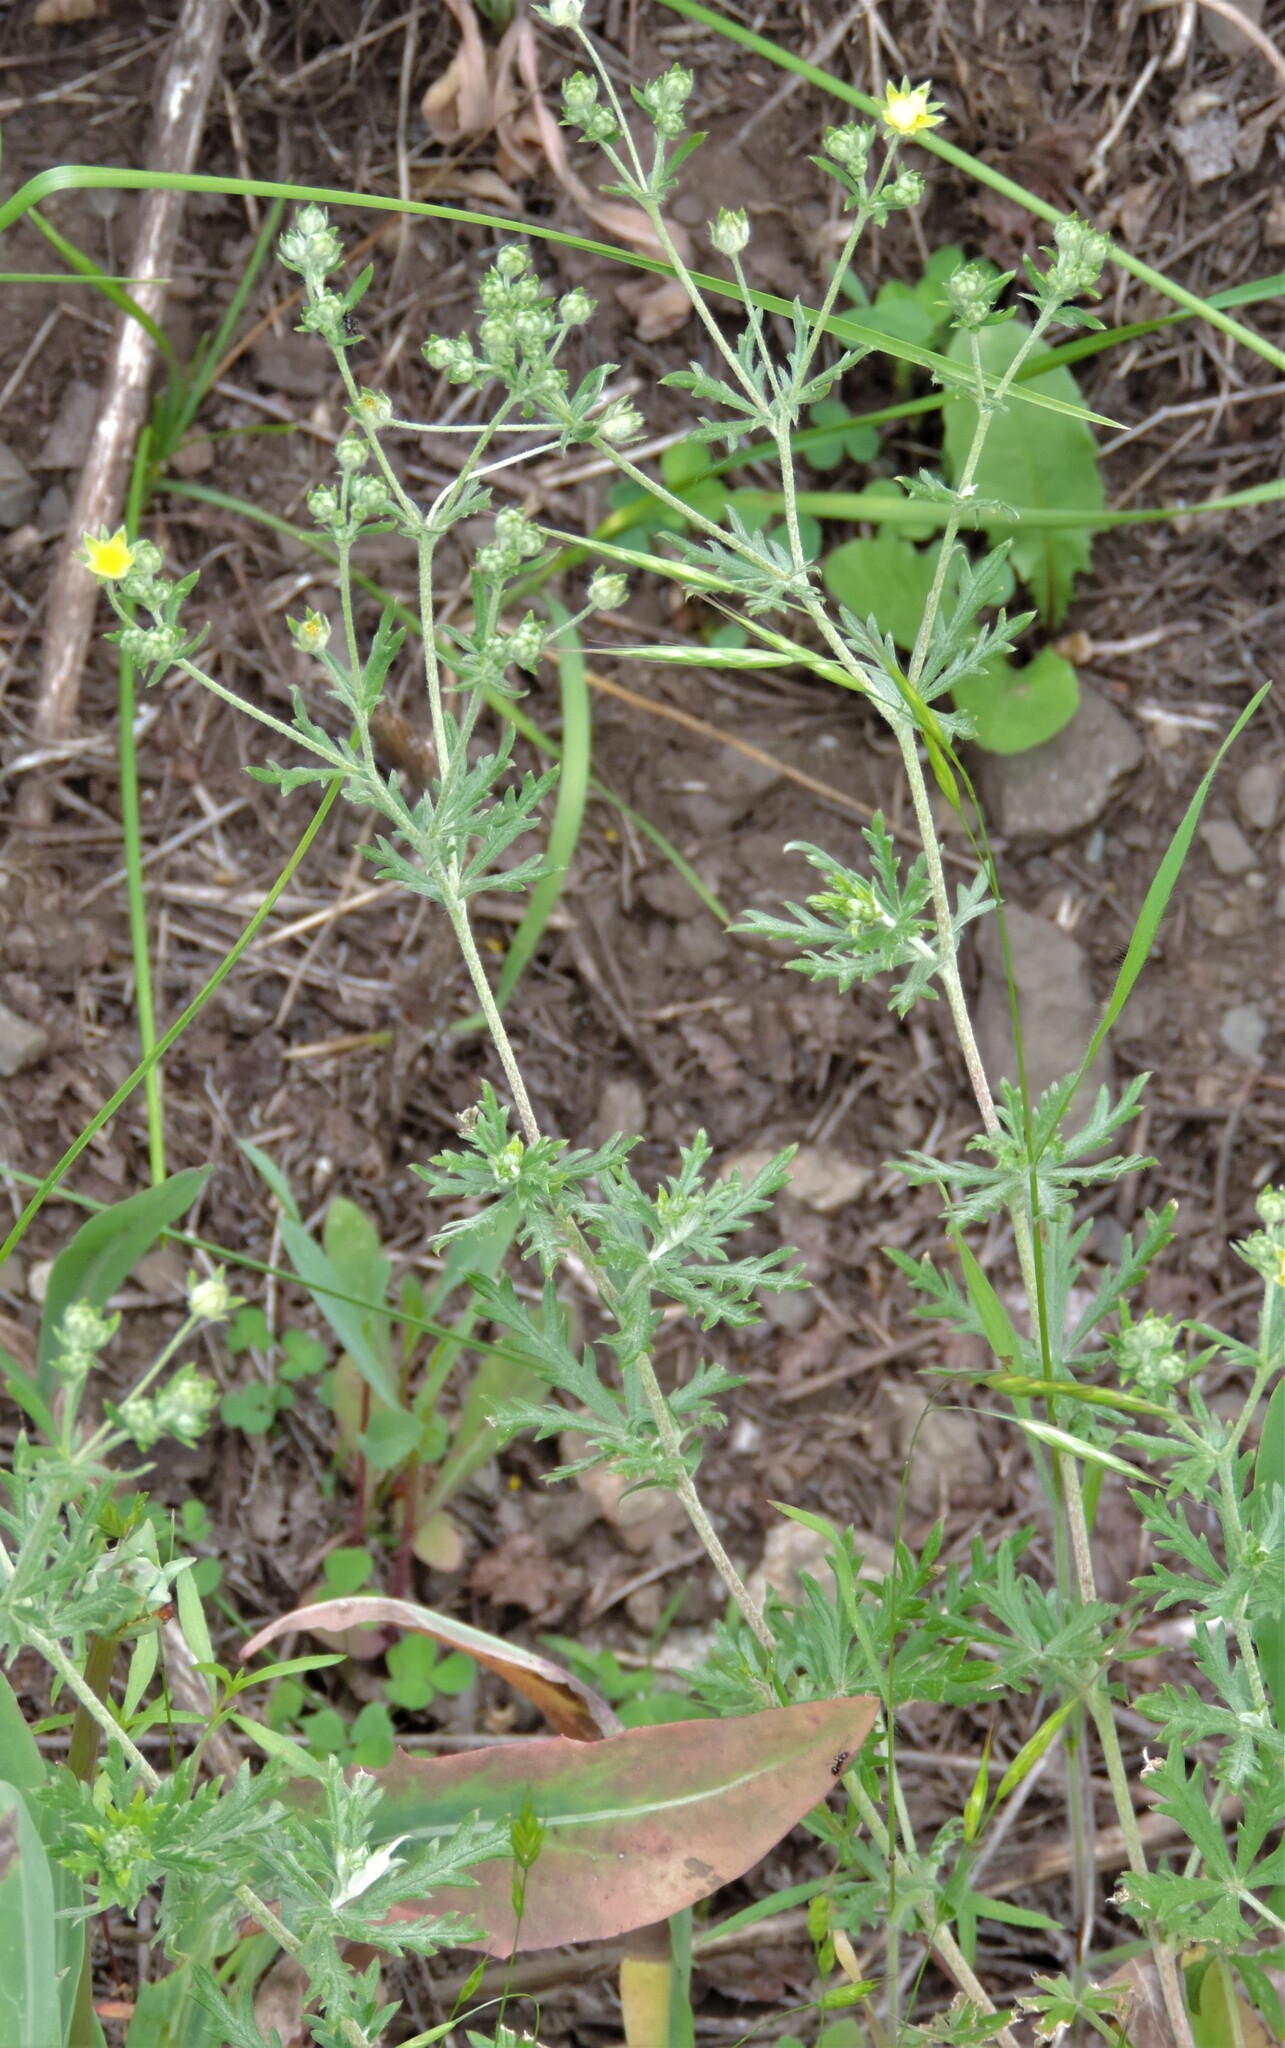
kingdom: Plantae
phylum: Tracheophyta
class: Magnoliopsida
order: Rosales
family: Rosaceae
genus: Potentilla
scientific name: Potentilla argentea
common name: Hoary cinquefoil
